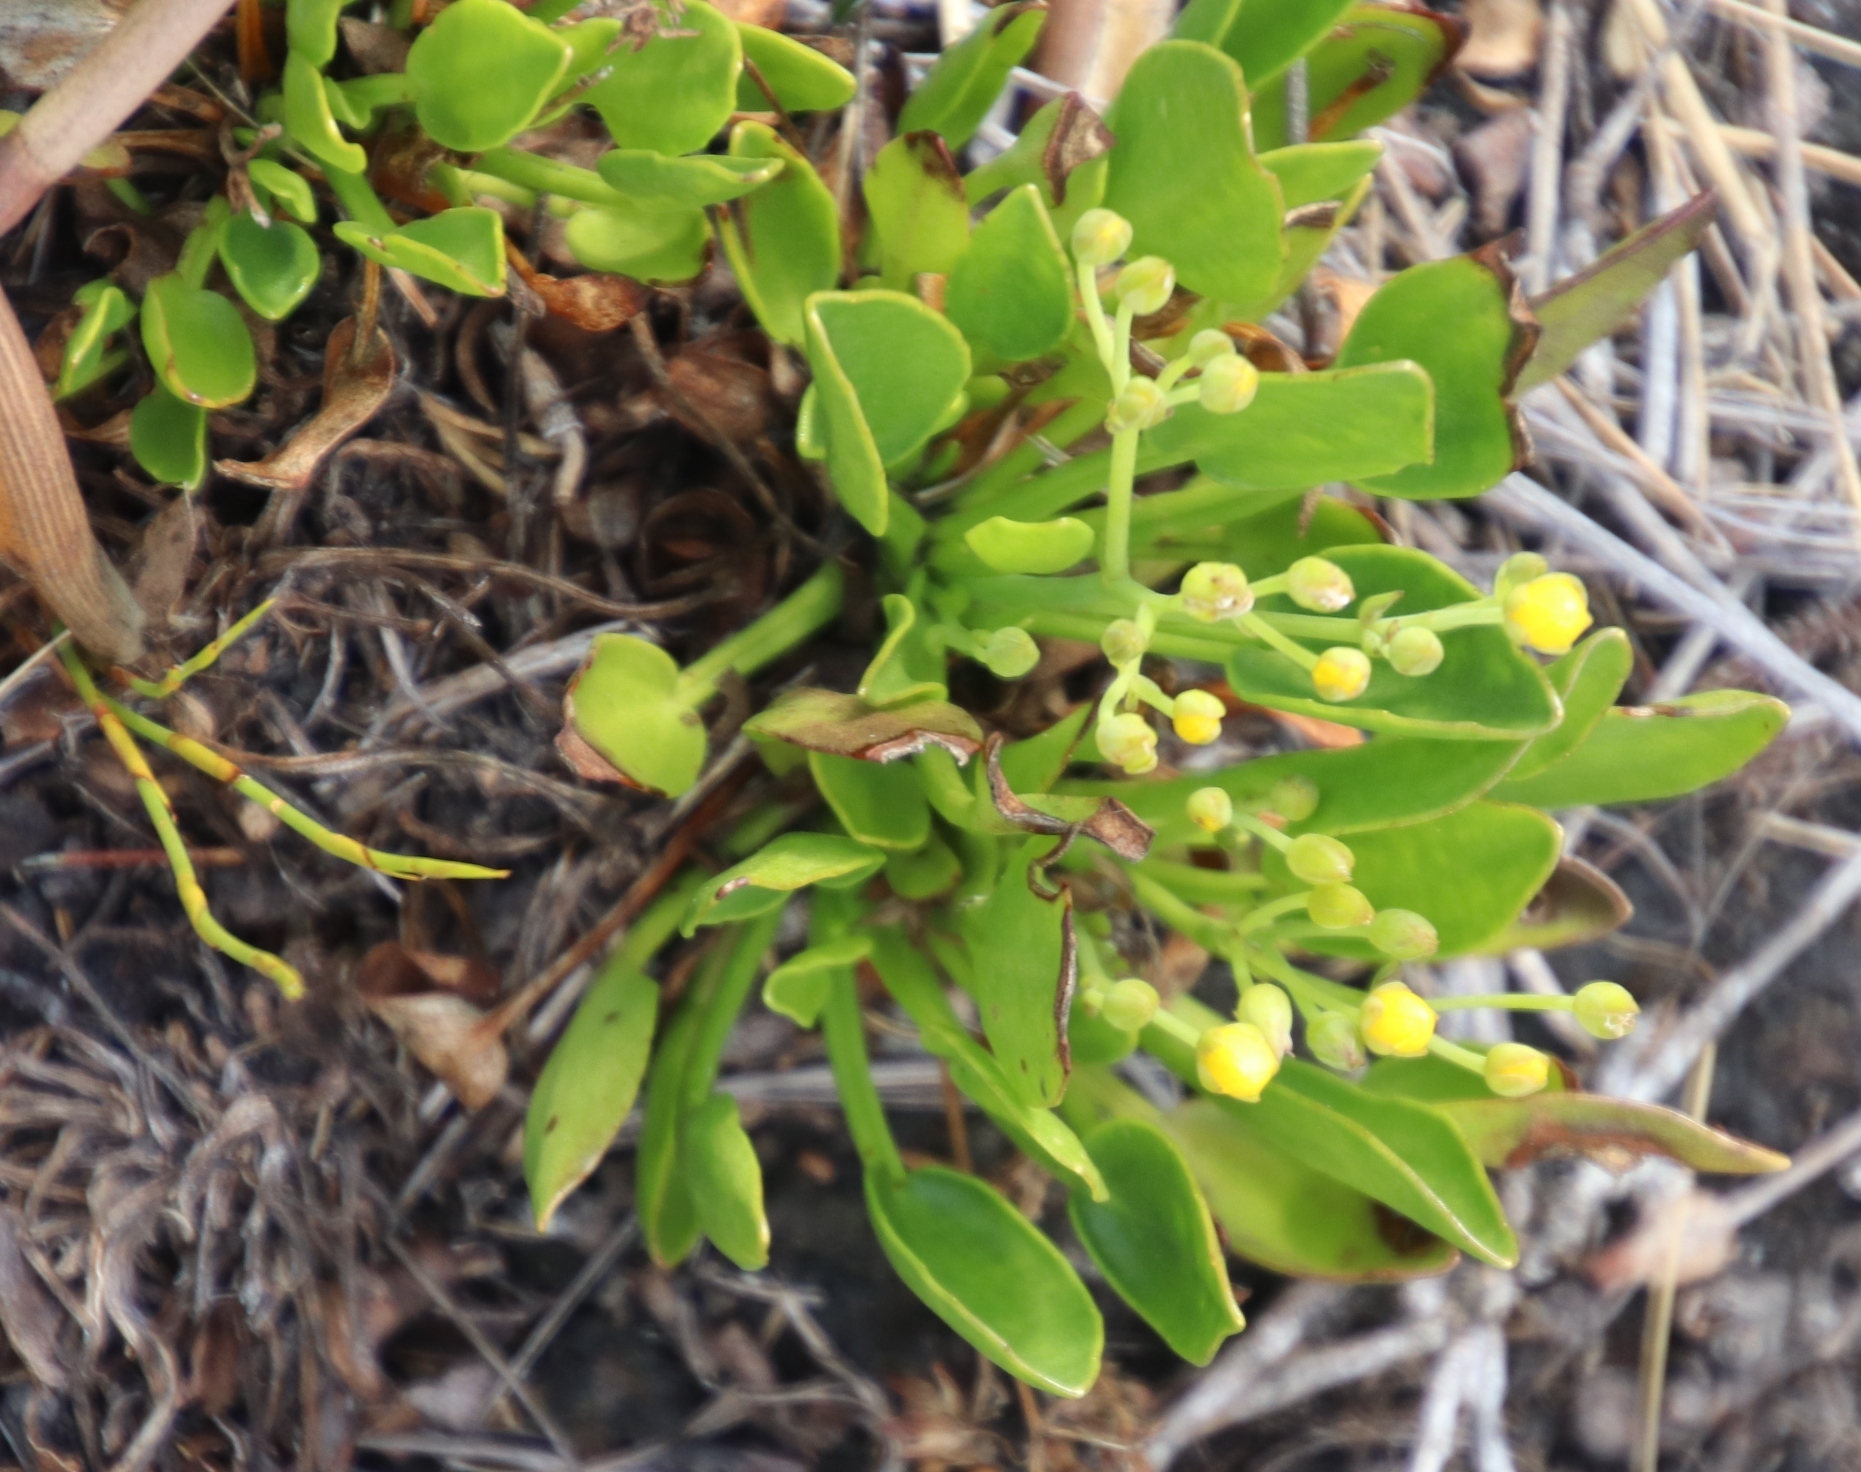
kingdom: Plantae
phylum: Tracheophyta
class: Magnoliopsida
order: Asterales
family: Menyanthaceae
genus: Villarsia
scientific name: Villarsia manningiana
